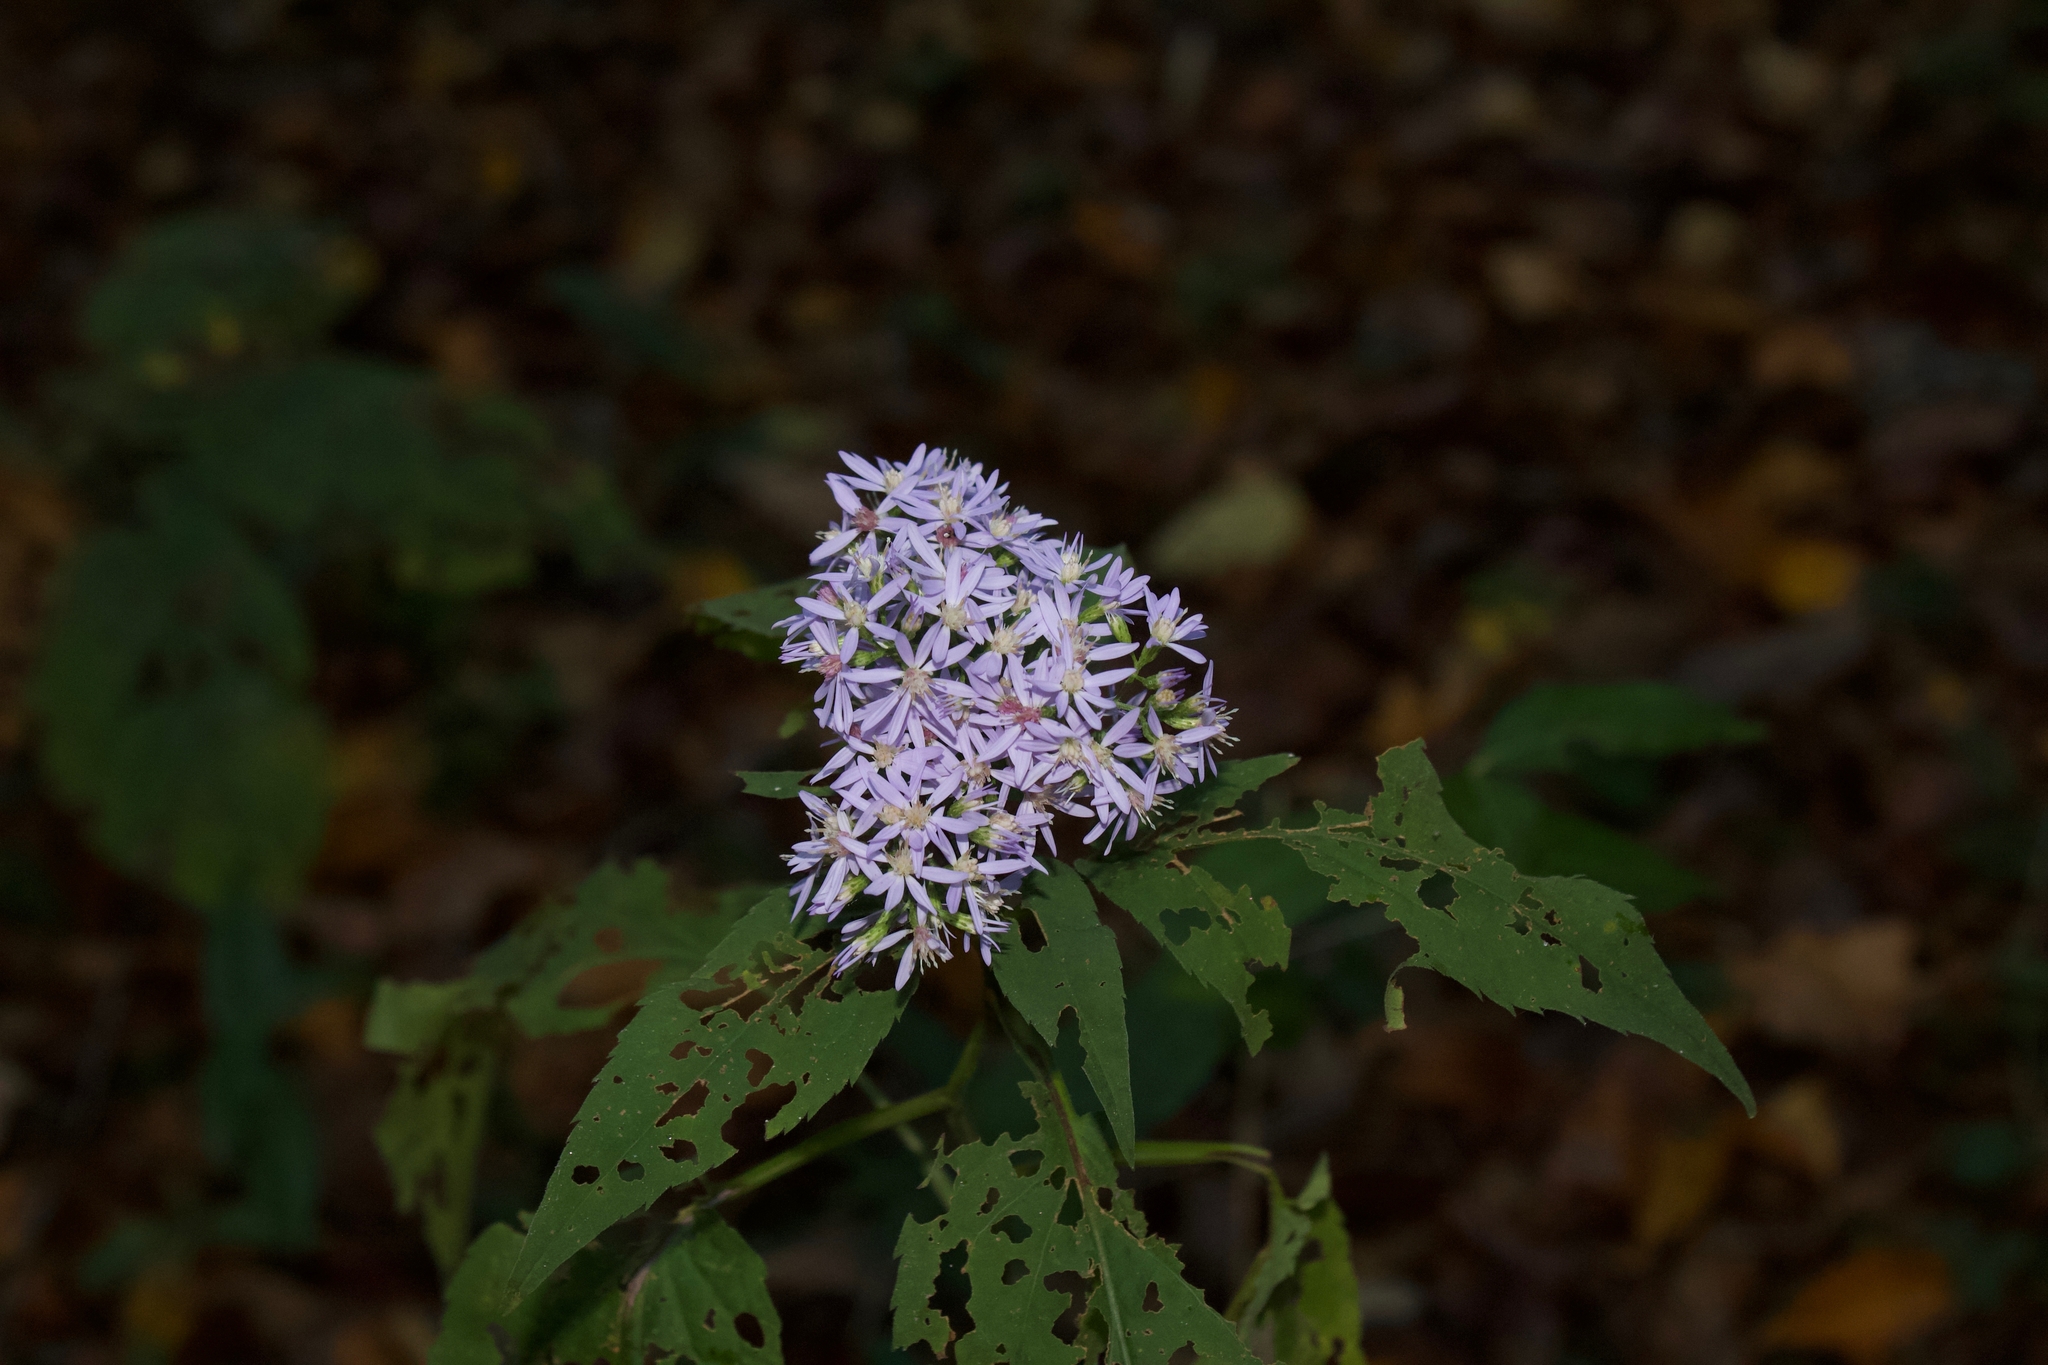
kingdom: Plantae
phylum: Tracheophyta
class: Magnoliopsida
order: Asterales
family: Asteraceae
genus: Symphyotrichum
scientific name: Symphyotrichum cordifolium
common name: Beeweed
